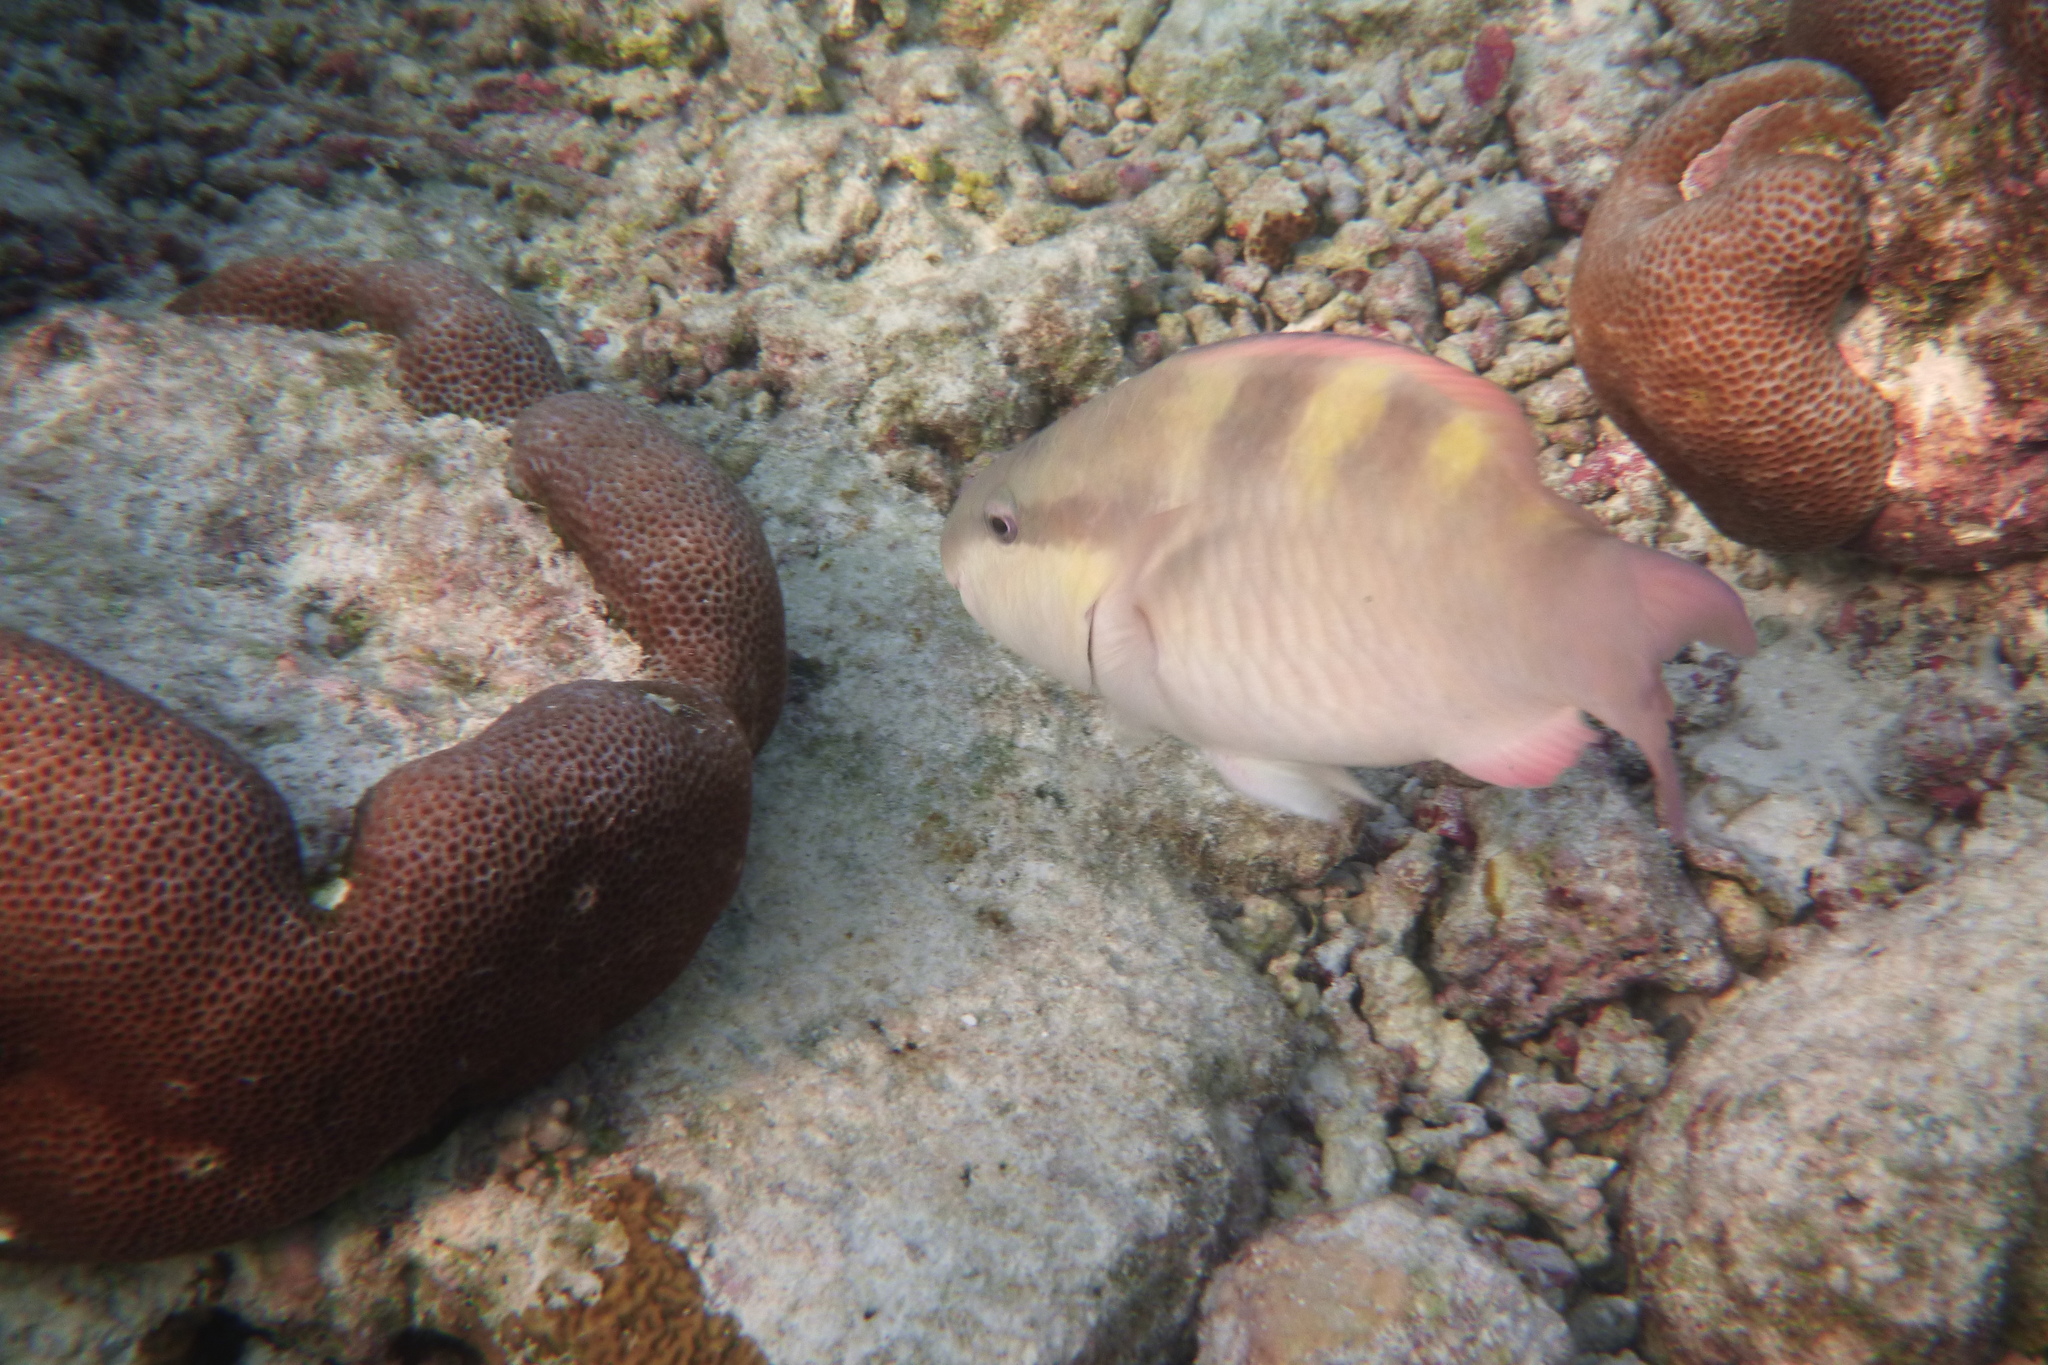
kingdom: Animalia
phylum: Chordata
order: Perciformes
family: Scaridae
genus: Scarus
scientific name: Scarus scaber
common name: Dusky-capped parrotfish
